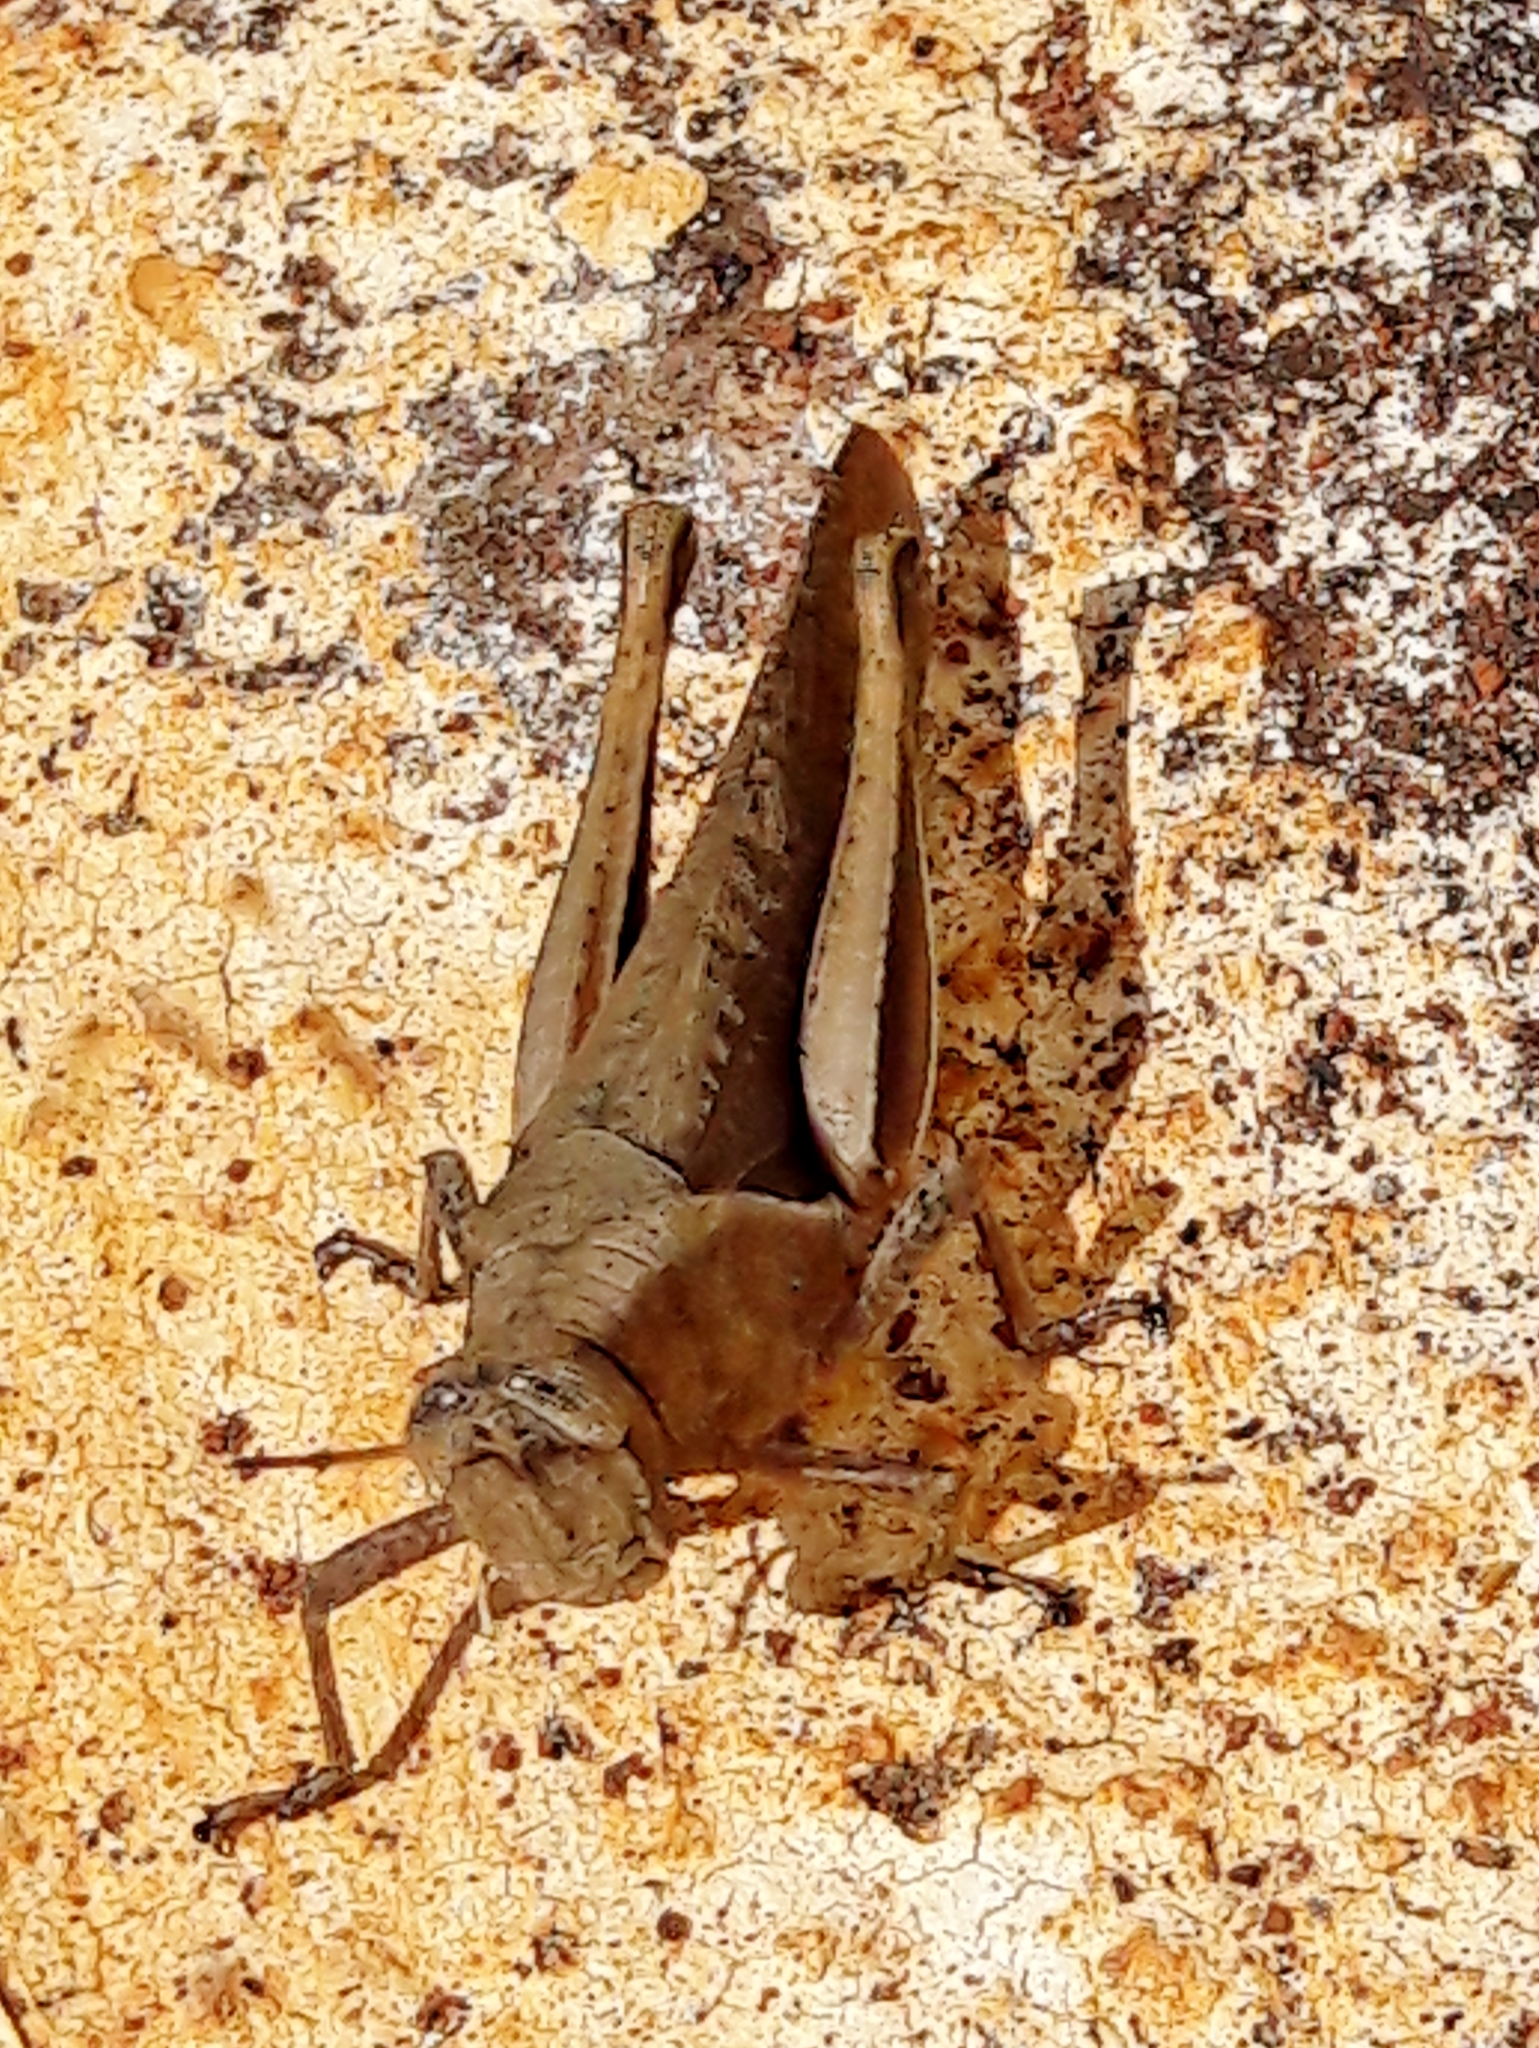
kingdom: Animalia
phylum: Arthropoda
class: Insecta
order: Orthoptera
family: Acrididae
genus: Abracris
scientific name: Abracris flavolineata
